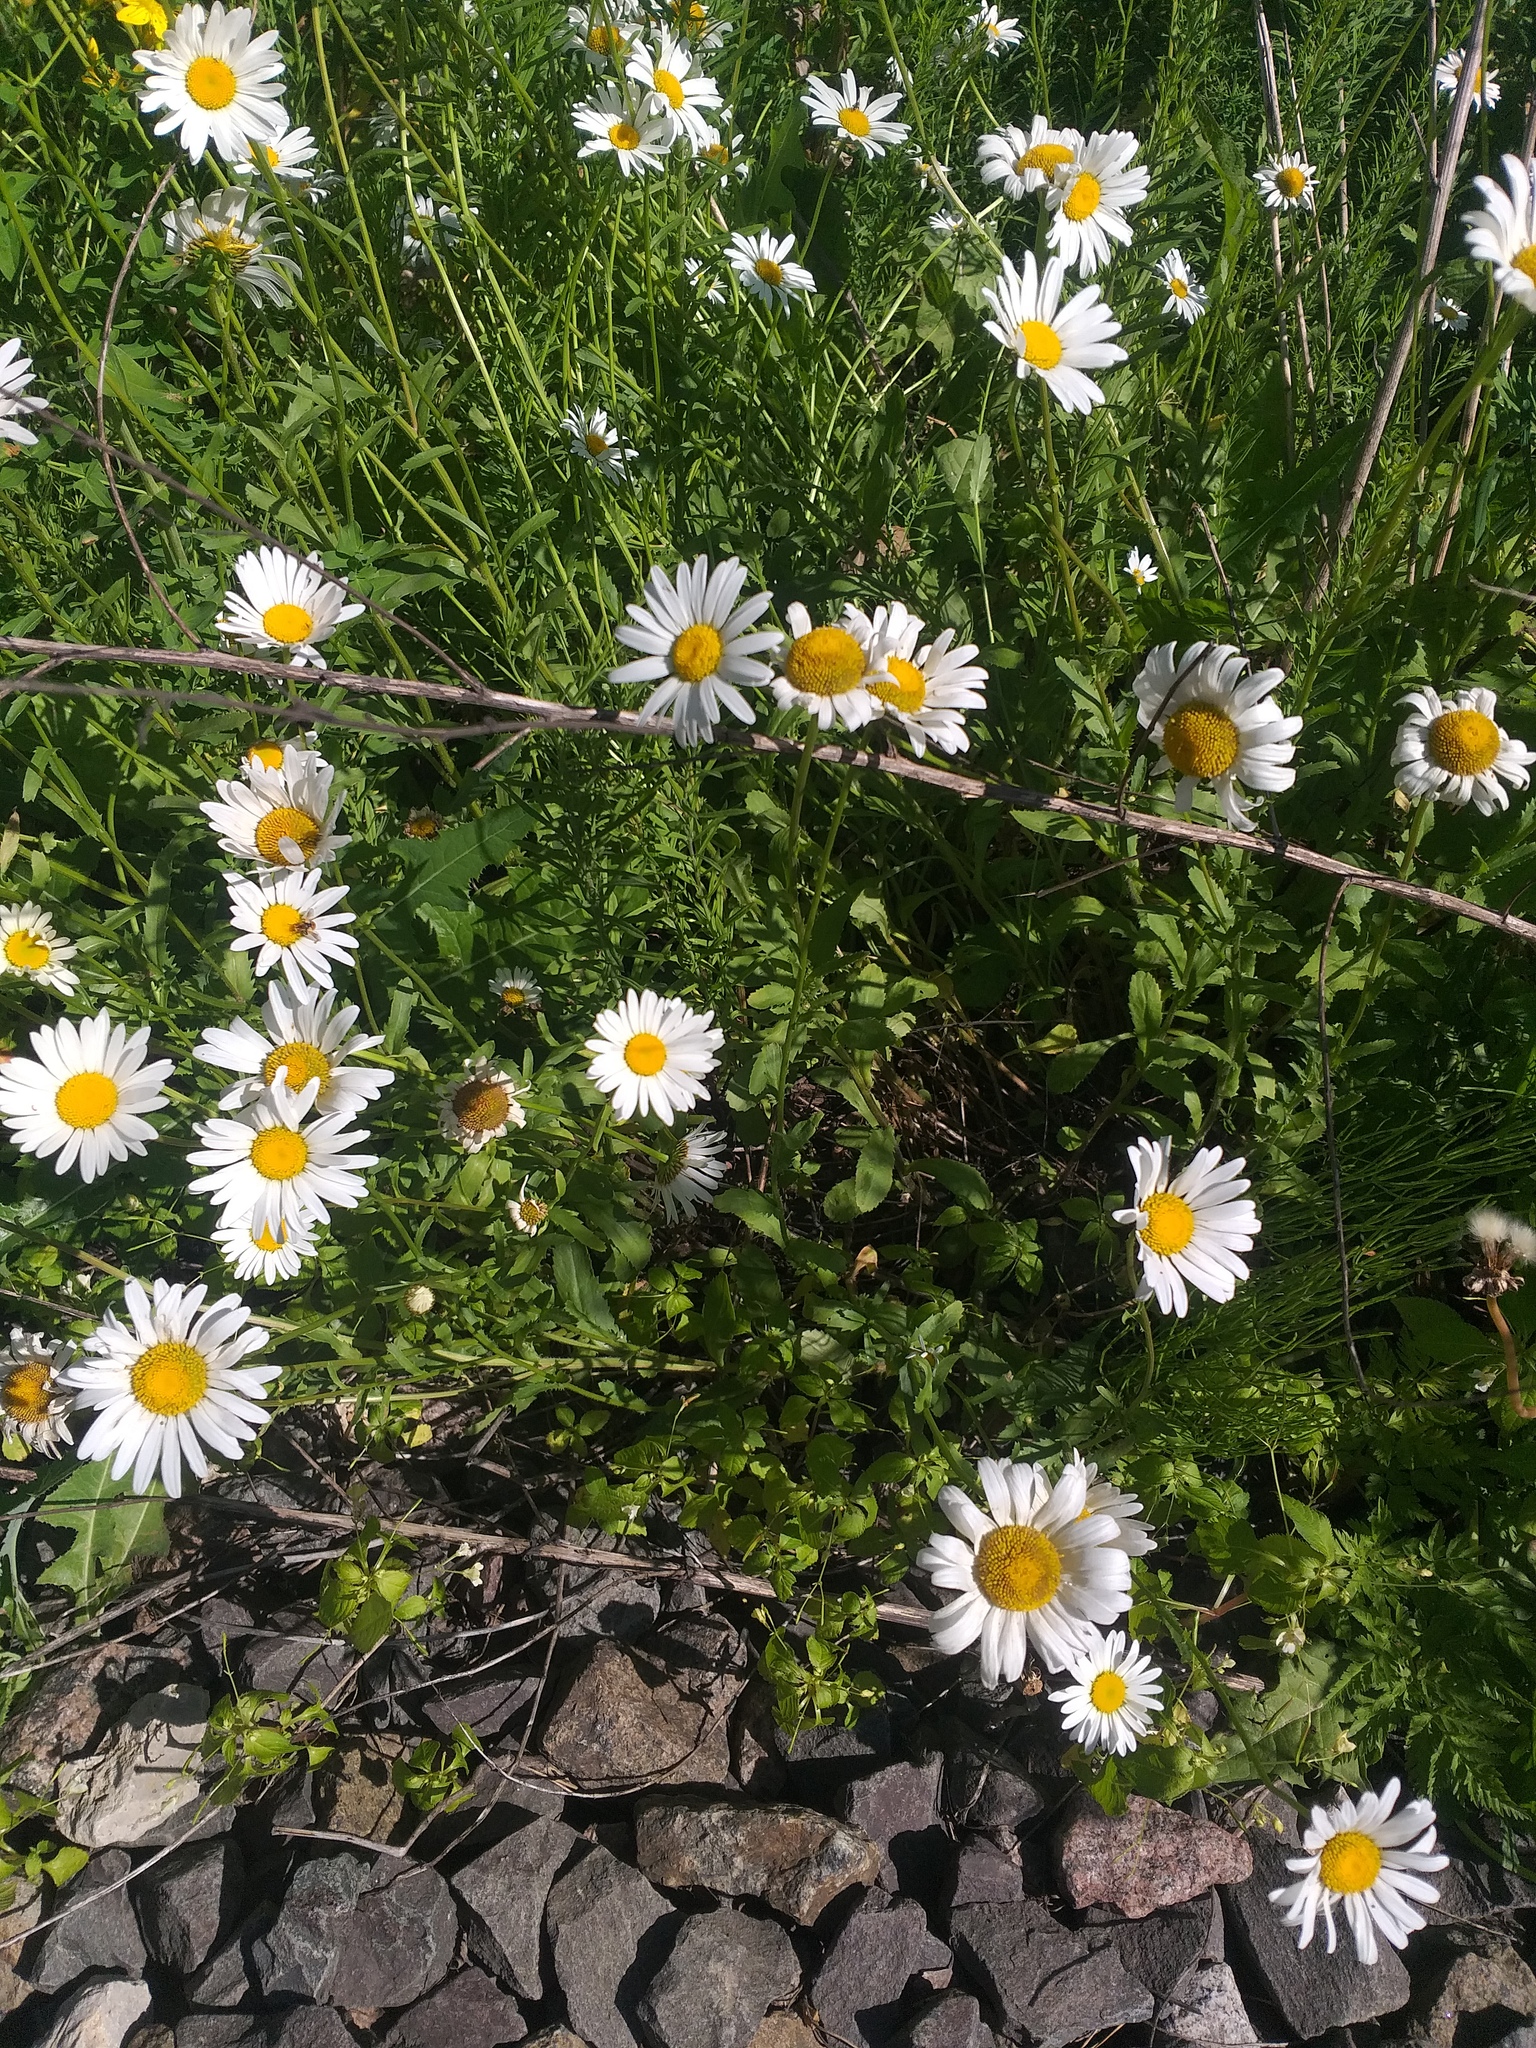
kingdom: Plantae
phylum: Tracheophyta
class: Magnoliopsida
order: Asterales
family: Asteraceae
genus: Leucanthemum
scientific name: Leucanthemum vulgare
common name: Oxeye daisy
